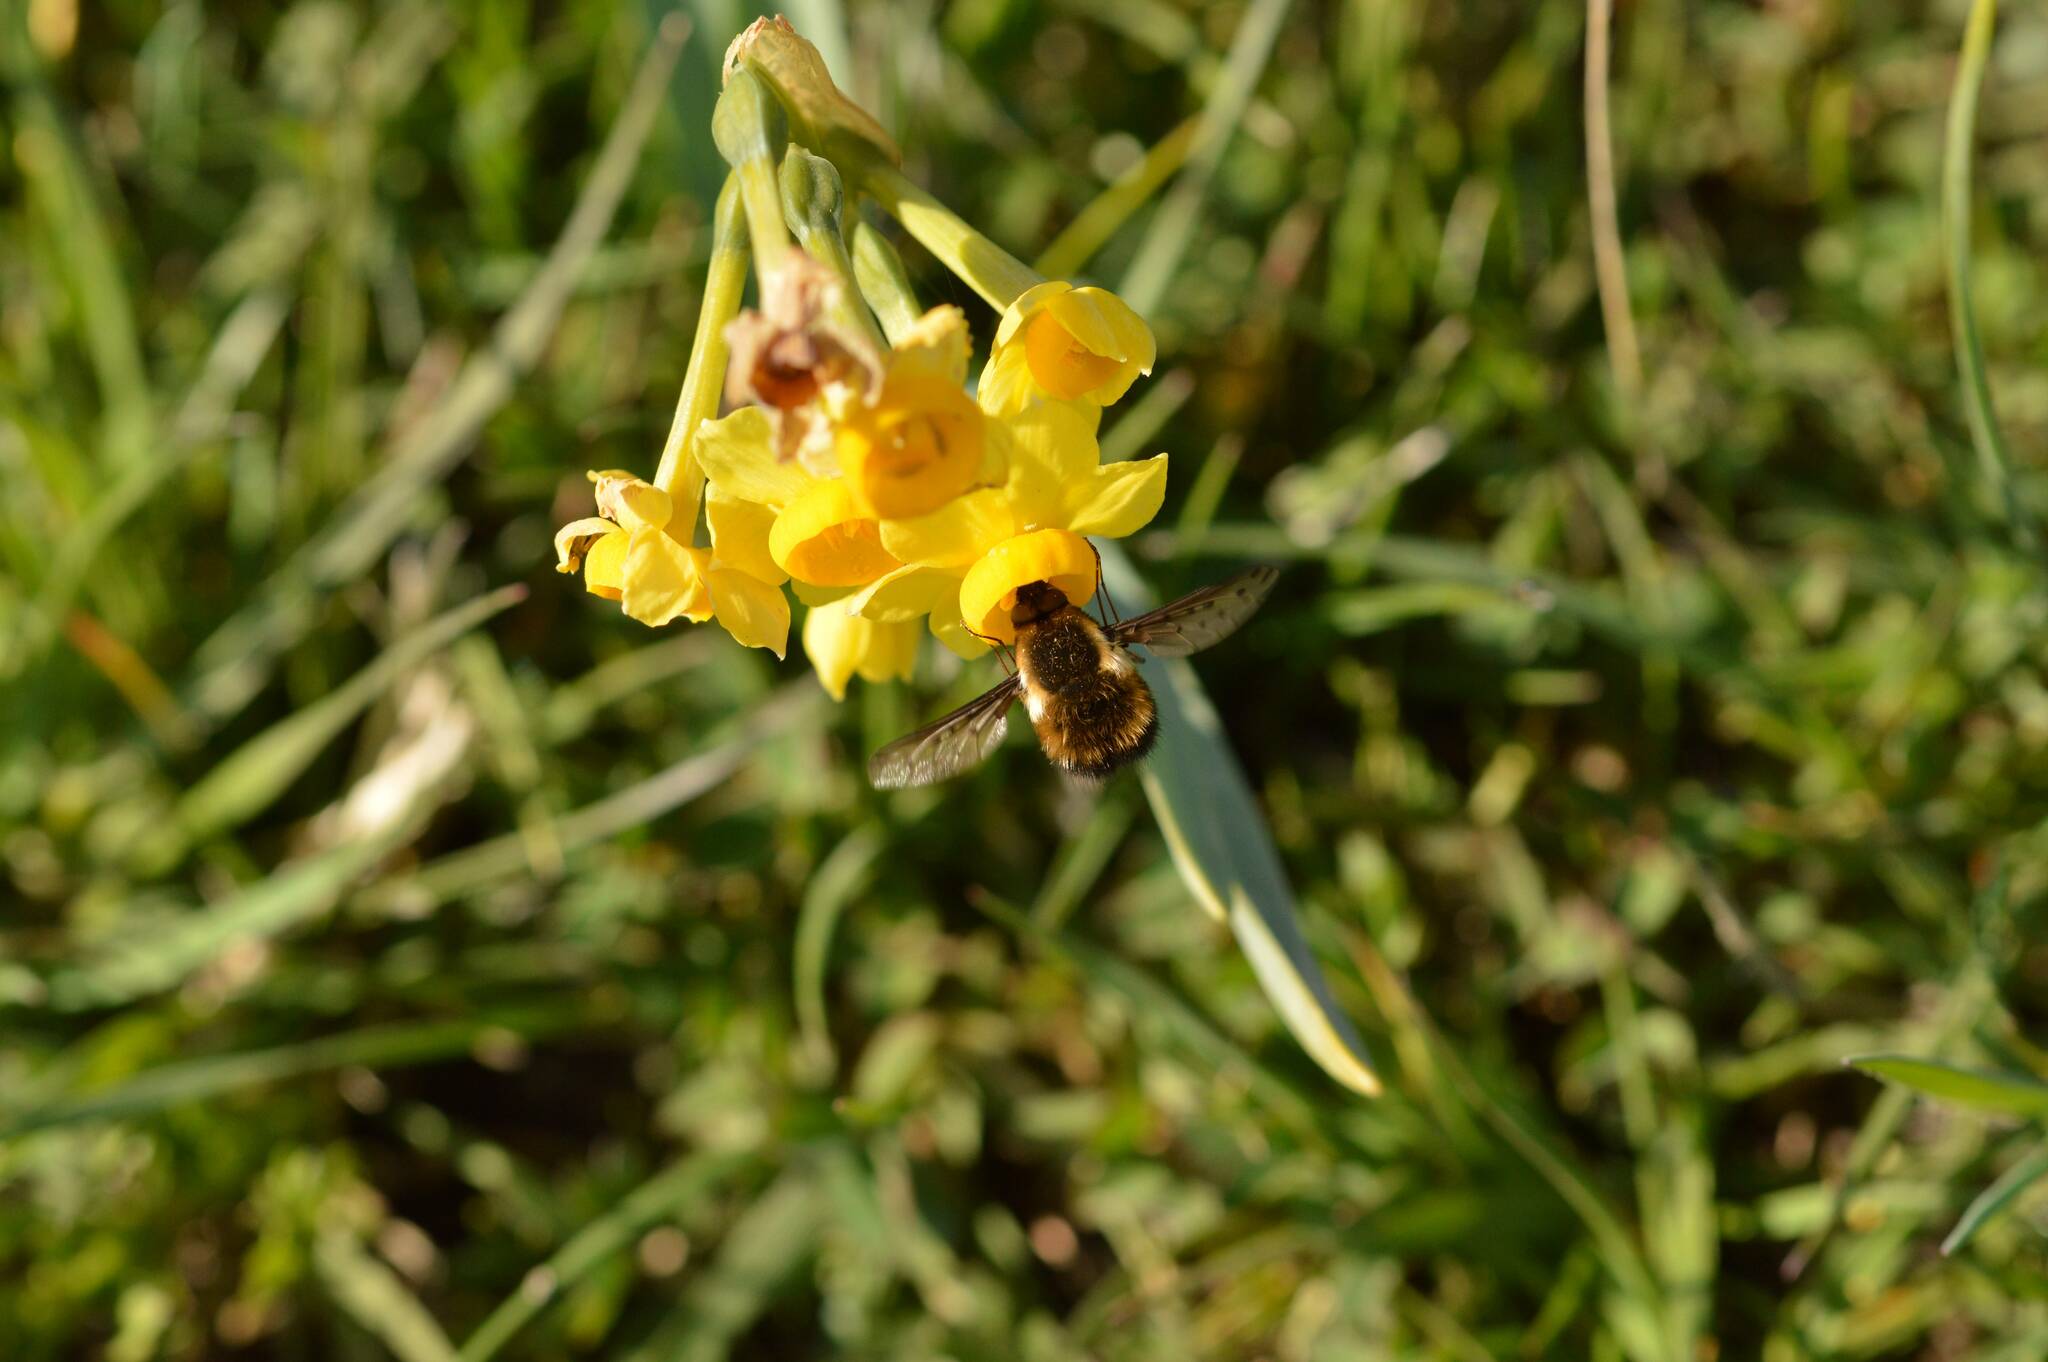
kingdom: Animalia
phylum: Arthropoda
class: Insecta
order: Diptera
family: Bombyliidae
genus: Bombylius
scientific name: Bombylius discolor
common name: Dotted bee-fly
